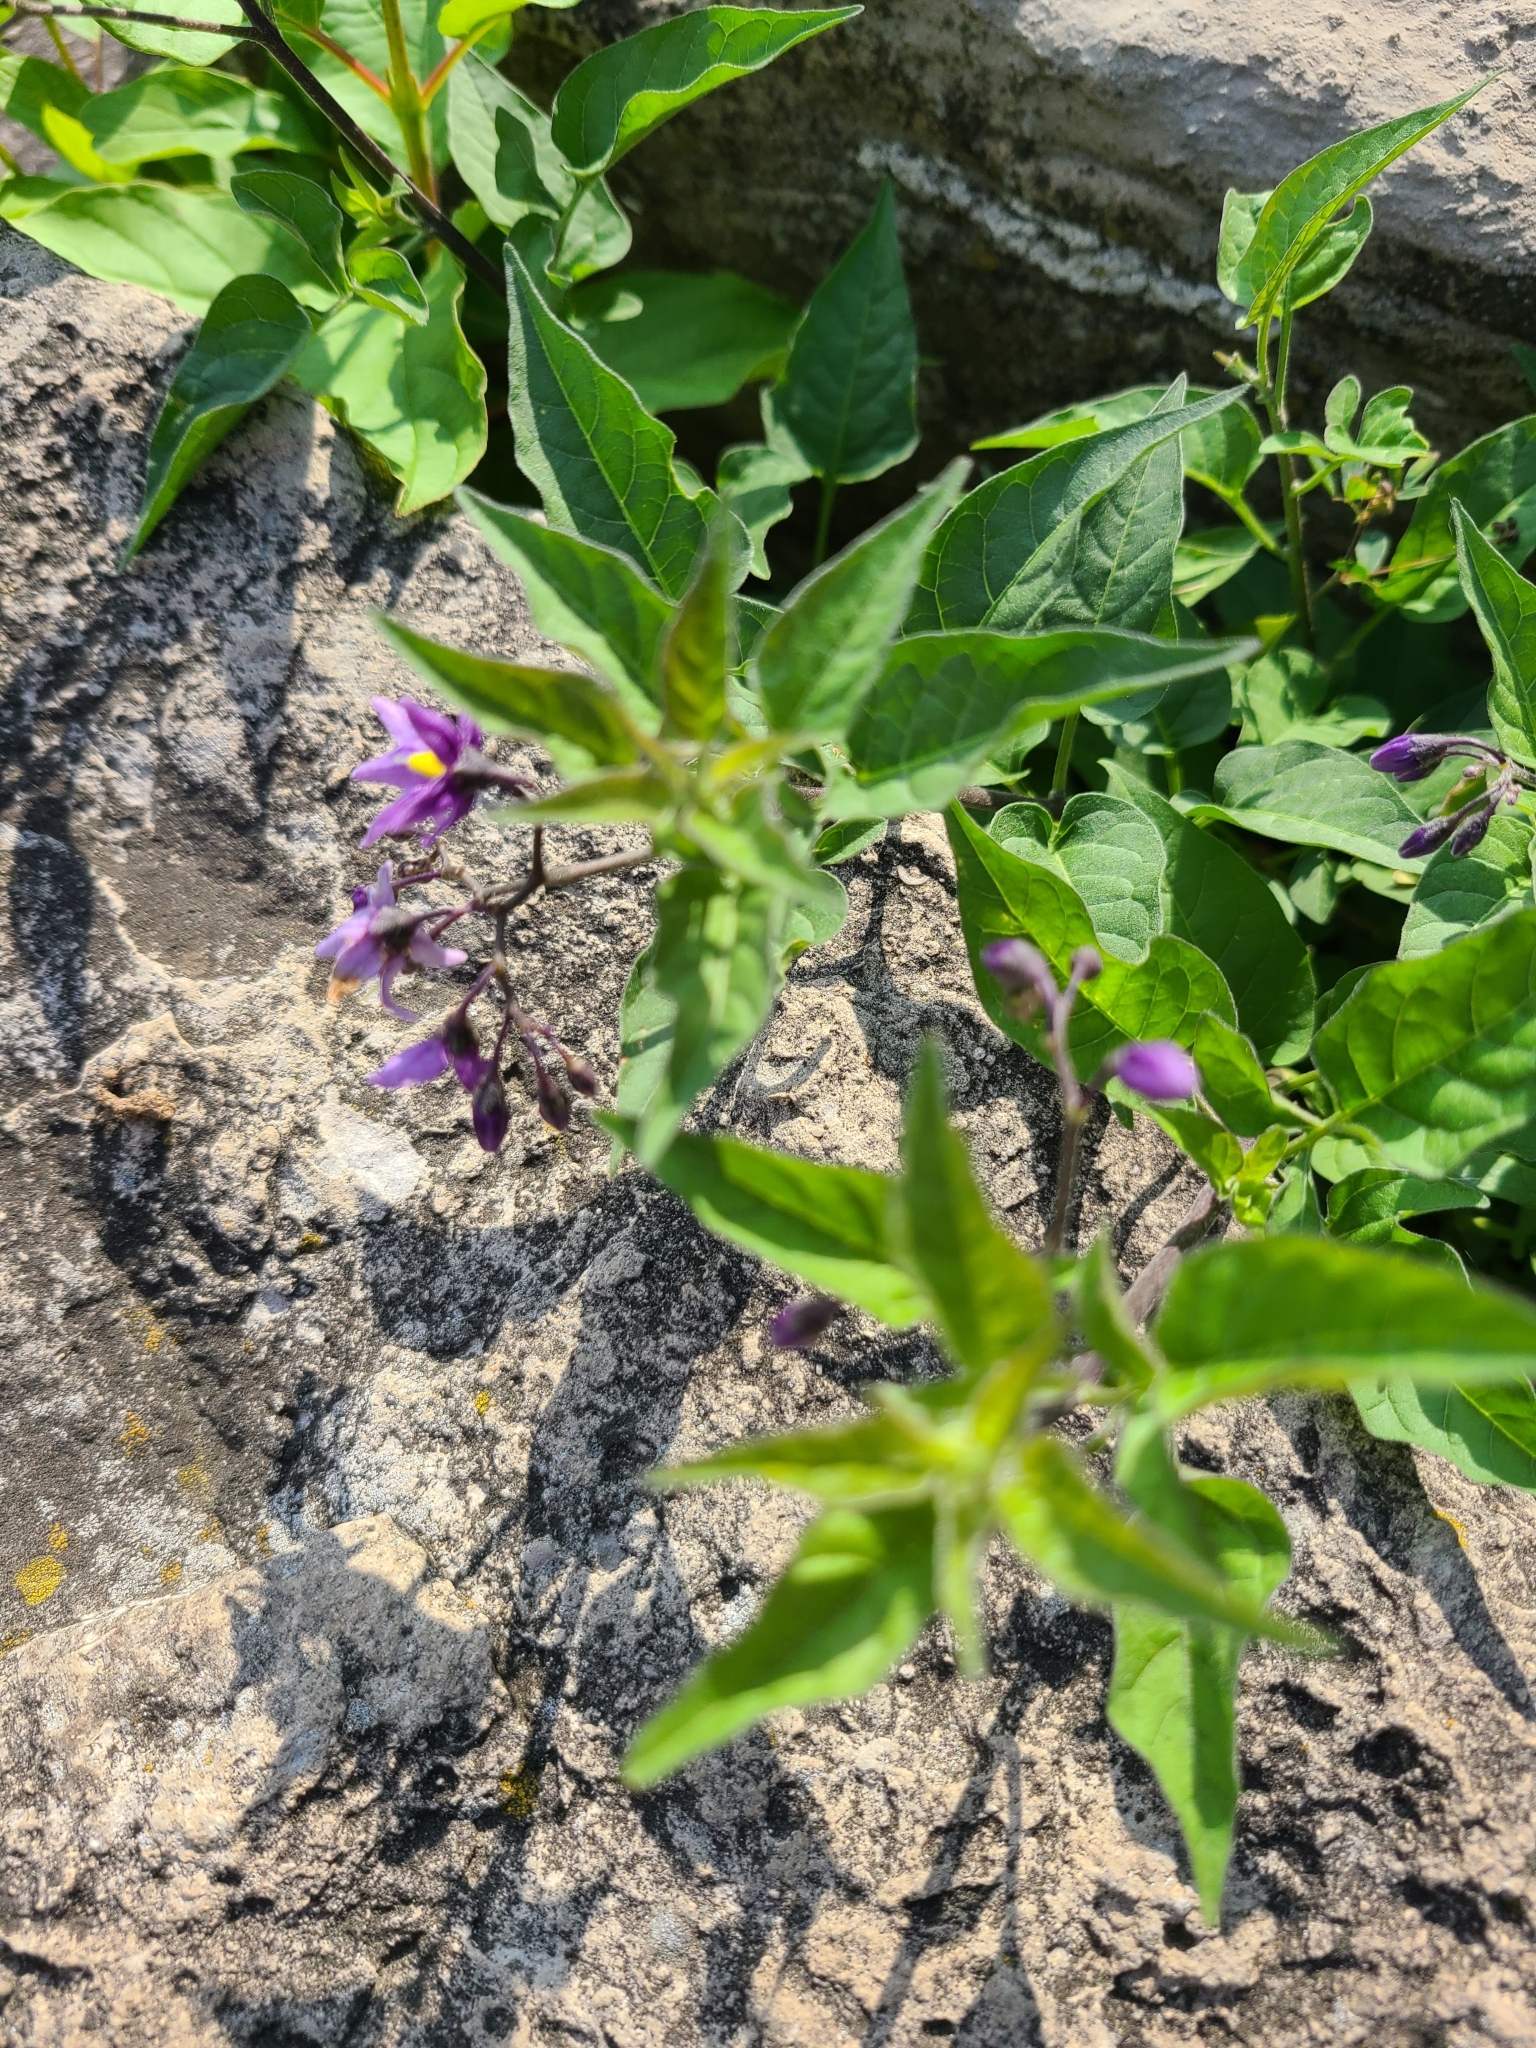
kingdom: Plantae
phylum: Tracheophyta
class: Magnoliopsida
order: Solanales
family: Solanaceae
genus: Solanum
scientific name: Solanum dulcamara
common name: Climbing nightshade
